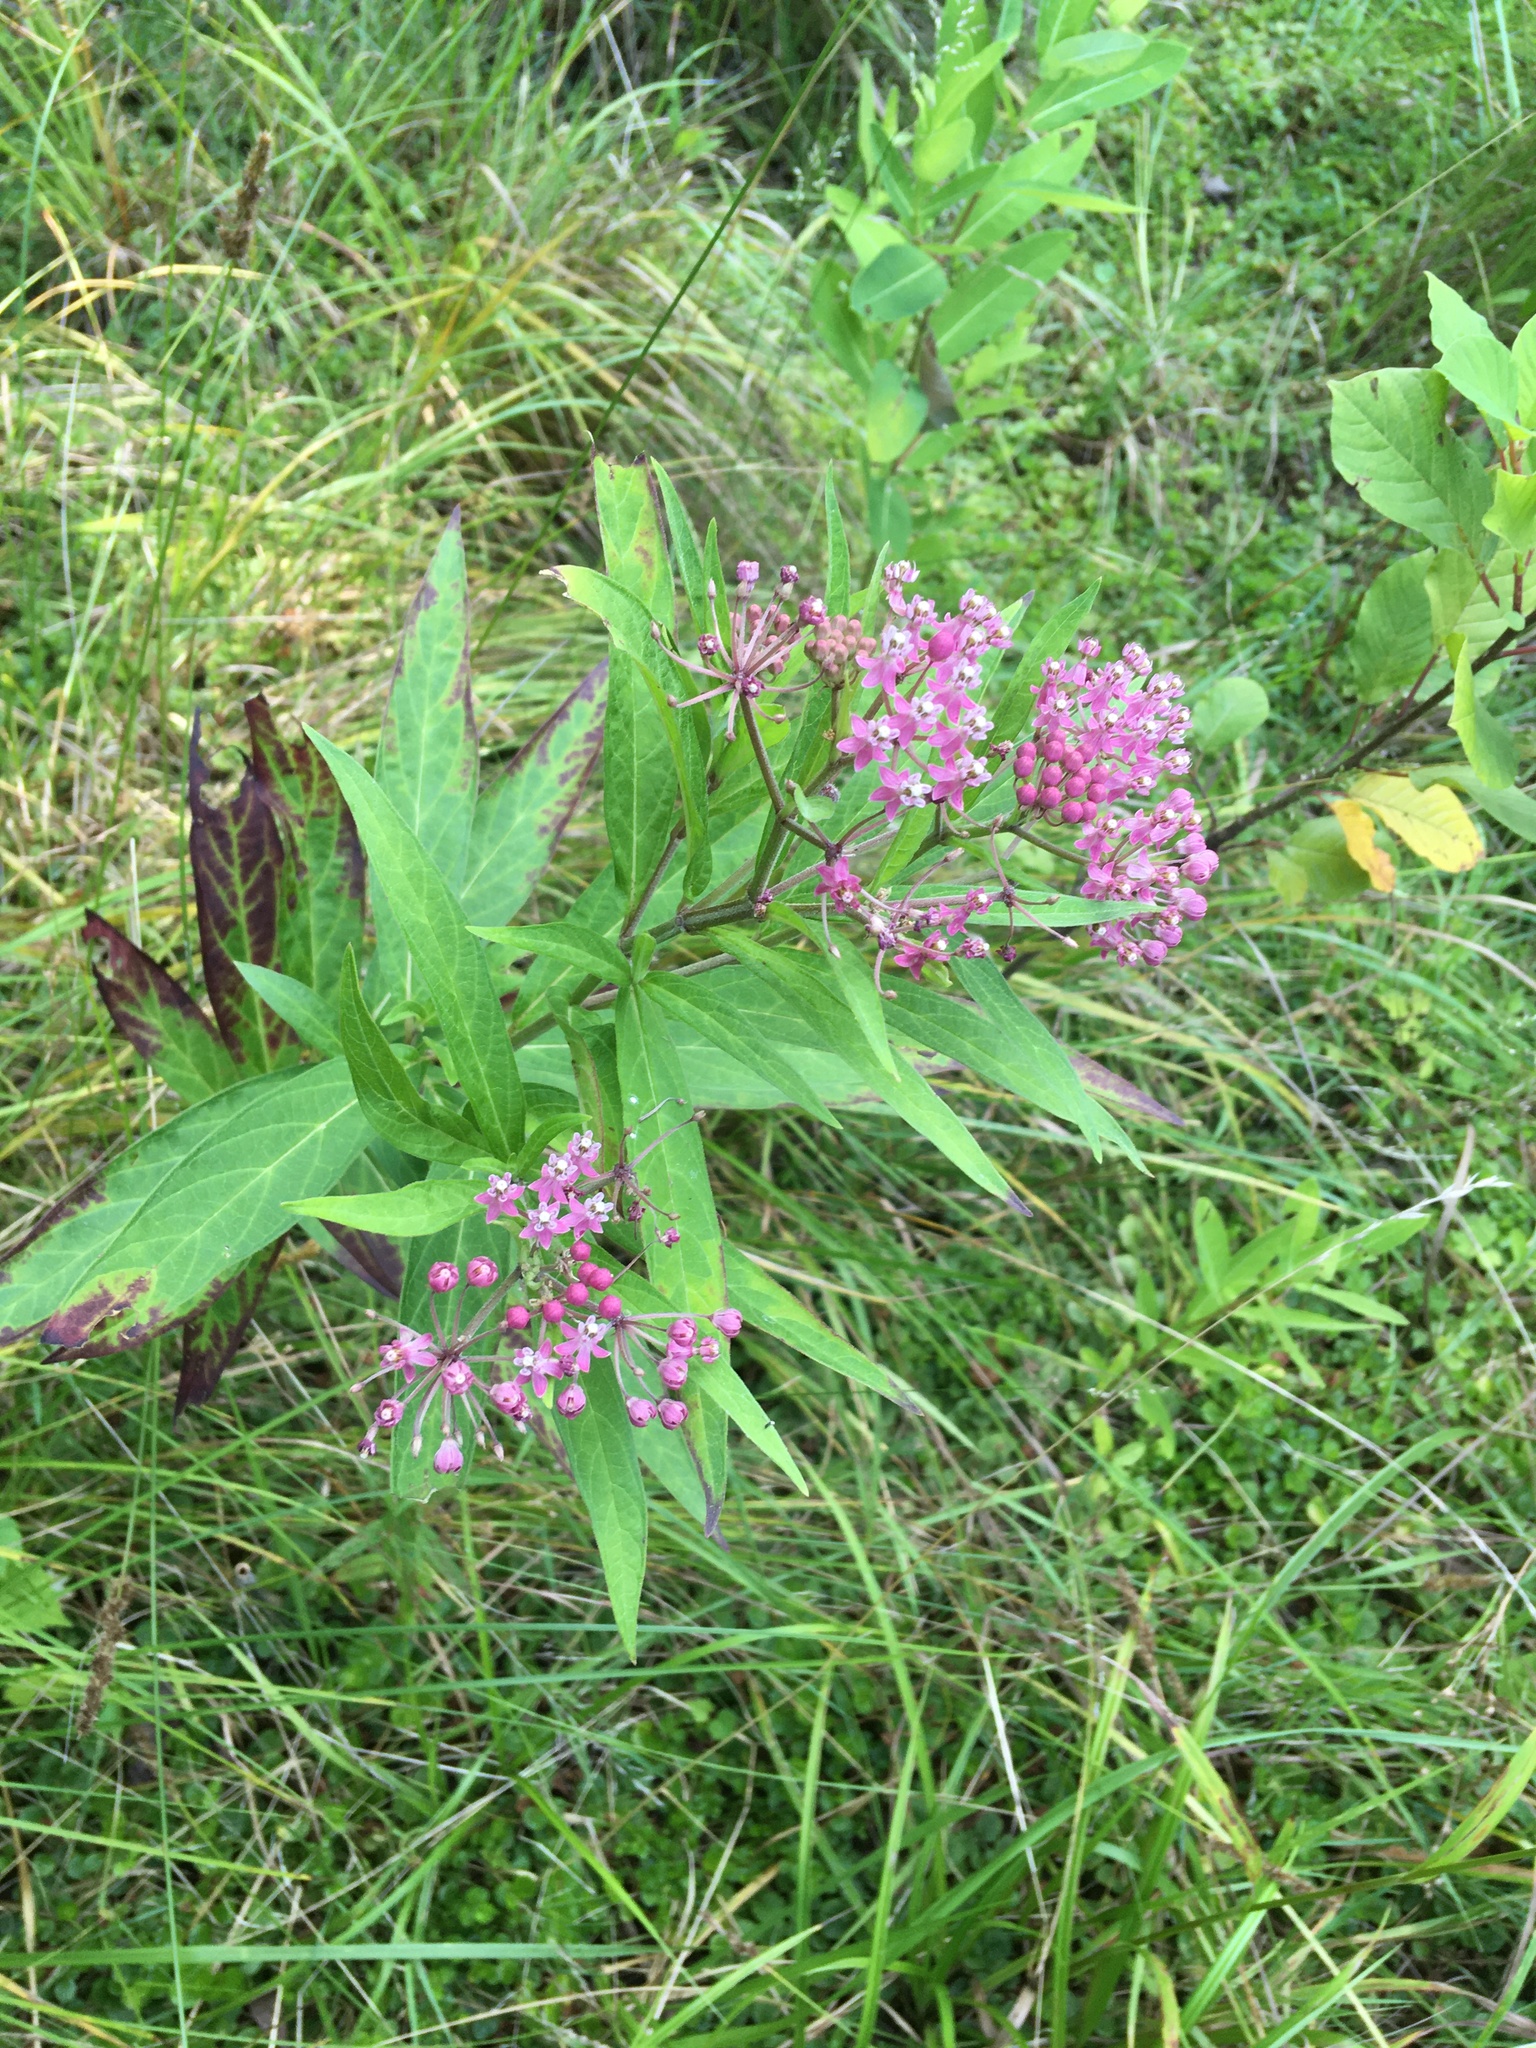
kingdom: Plantae
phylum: Tracheophyta
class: Magnoliopsida
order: Gentianales
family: Apocynaceae
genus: Asclepias
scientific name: Asclepias incarnata
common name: Swamp milkweed
